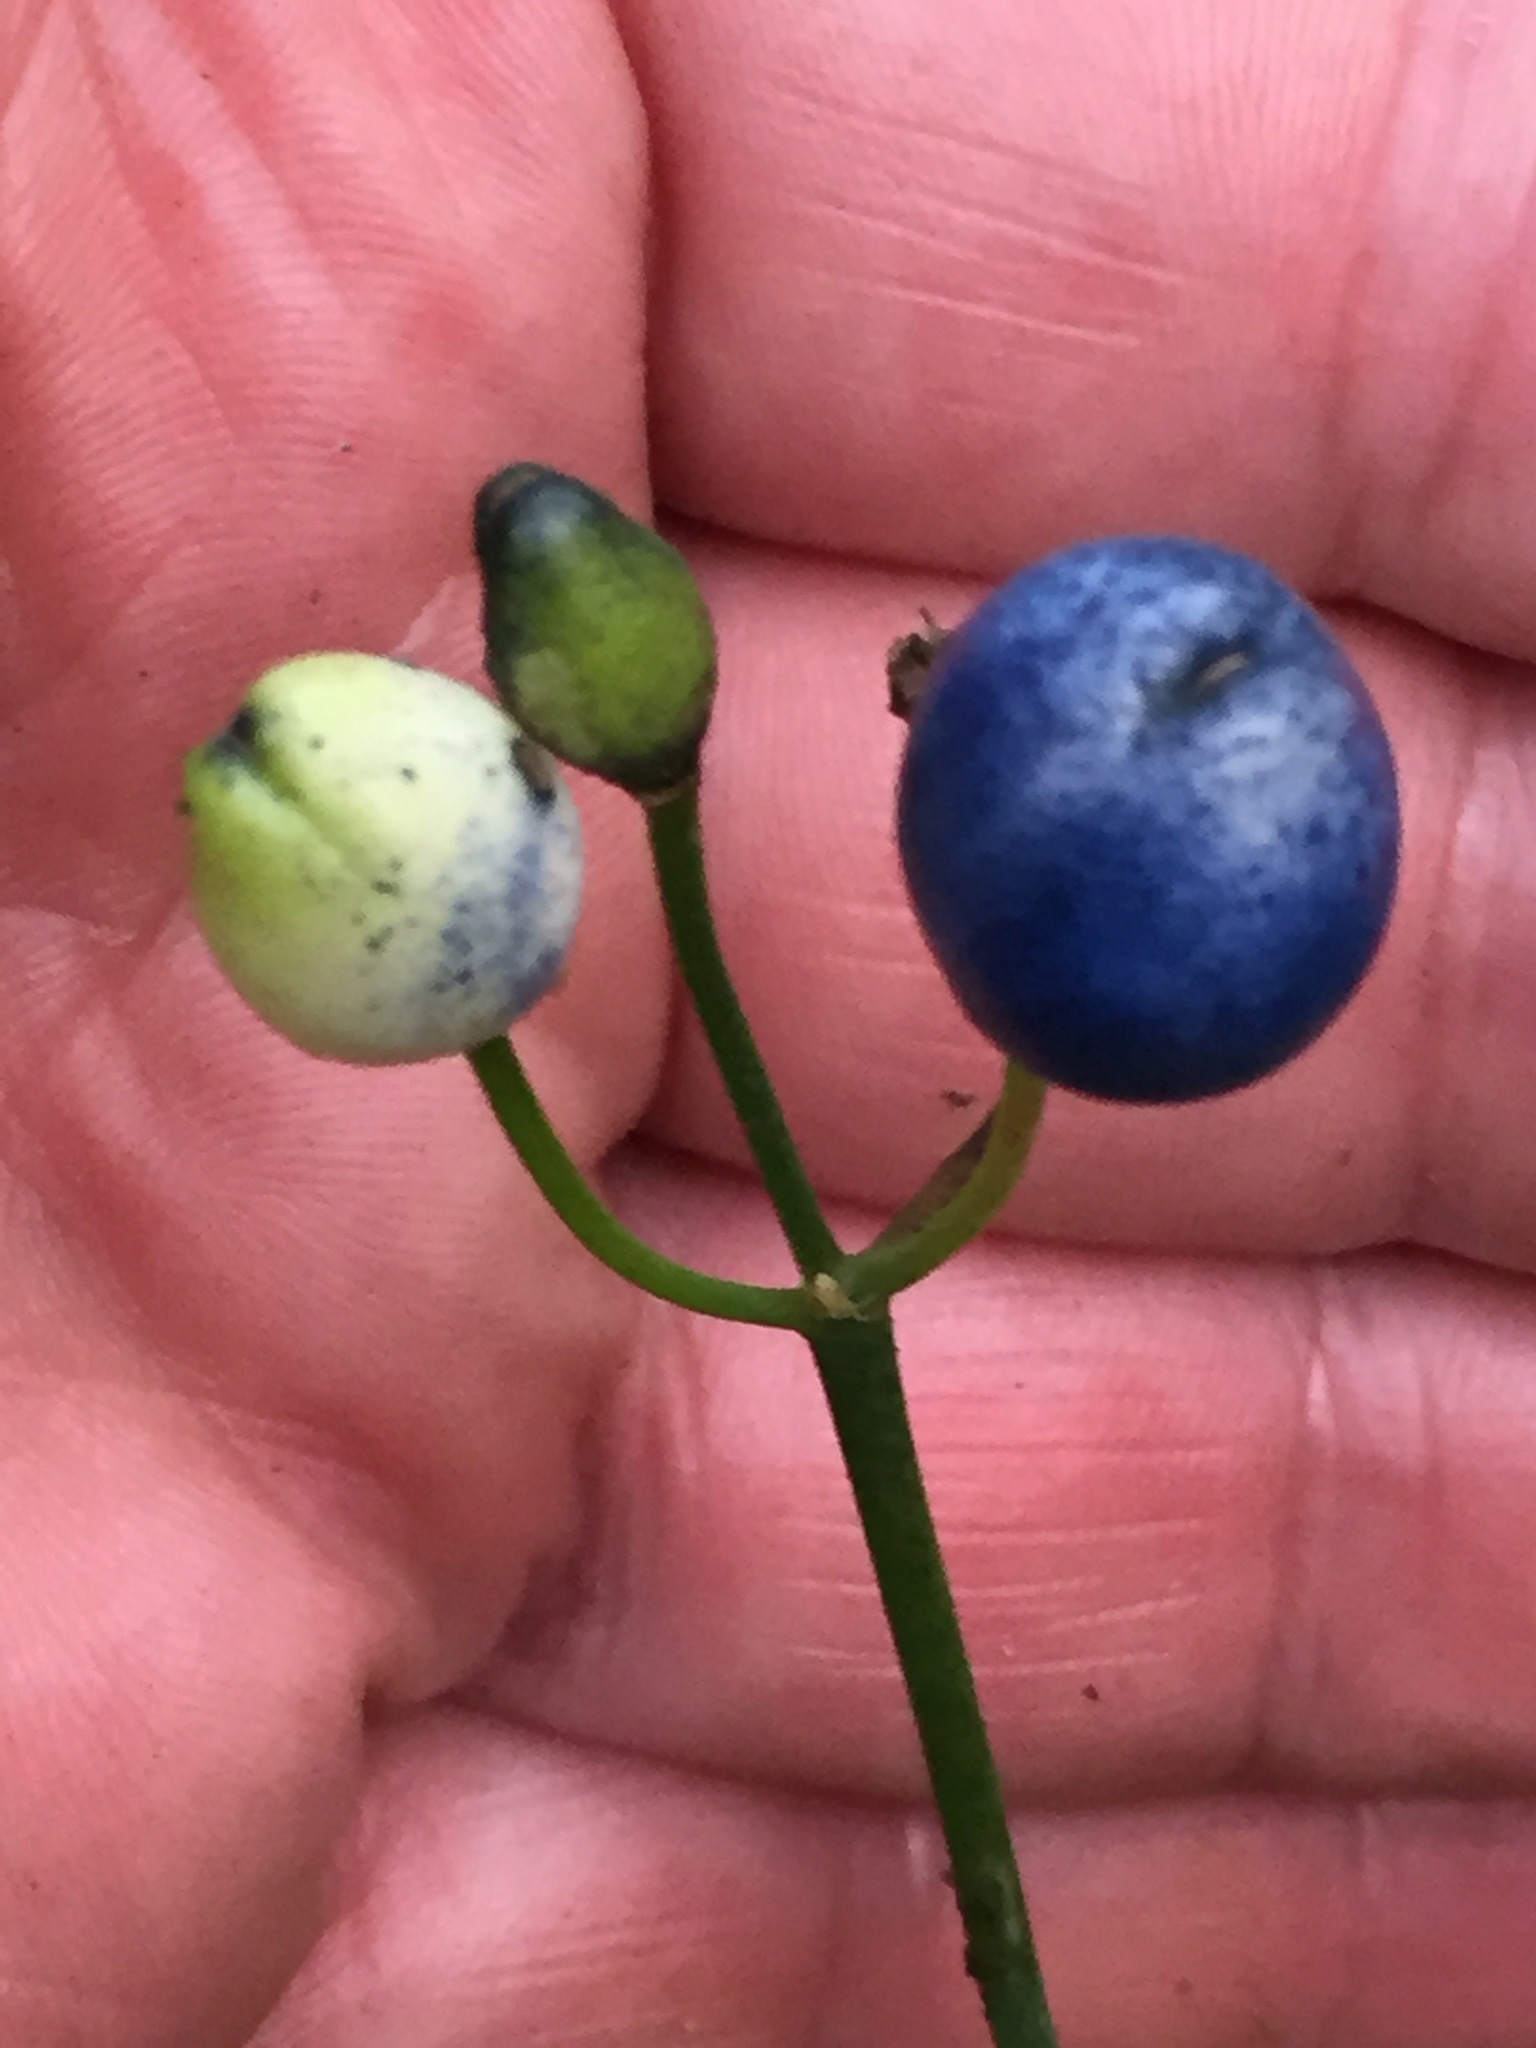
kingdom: Plantae
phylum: Tracheophyta
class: Liliopsida
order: Liliales
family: Liliaceae
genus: Clintonia
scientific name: Clintonia borealis
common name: Yellow clintonia
